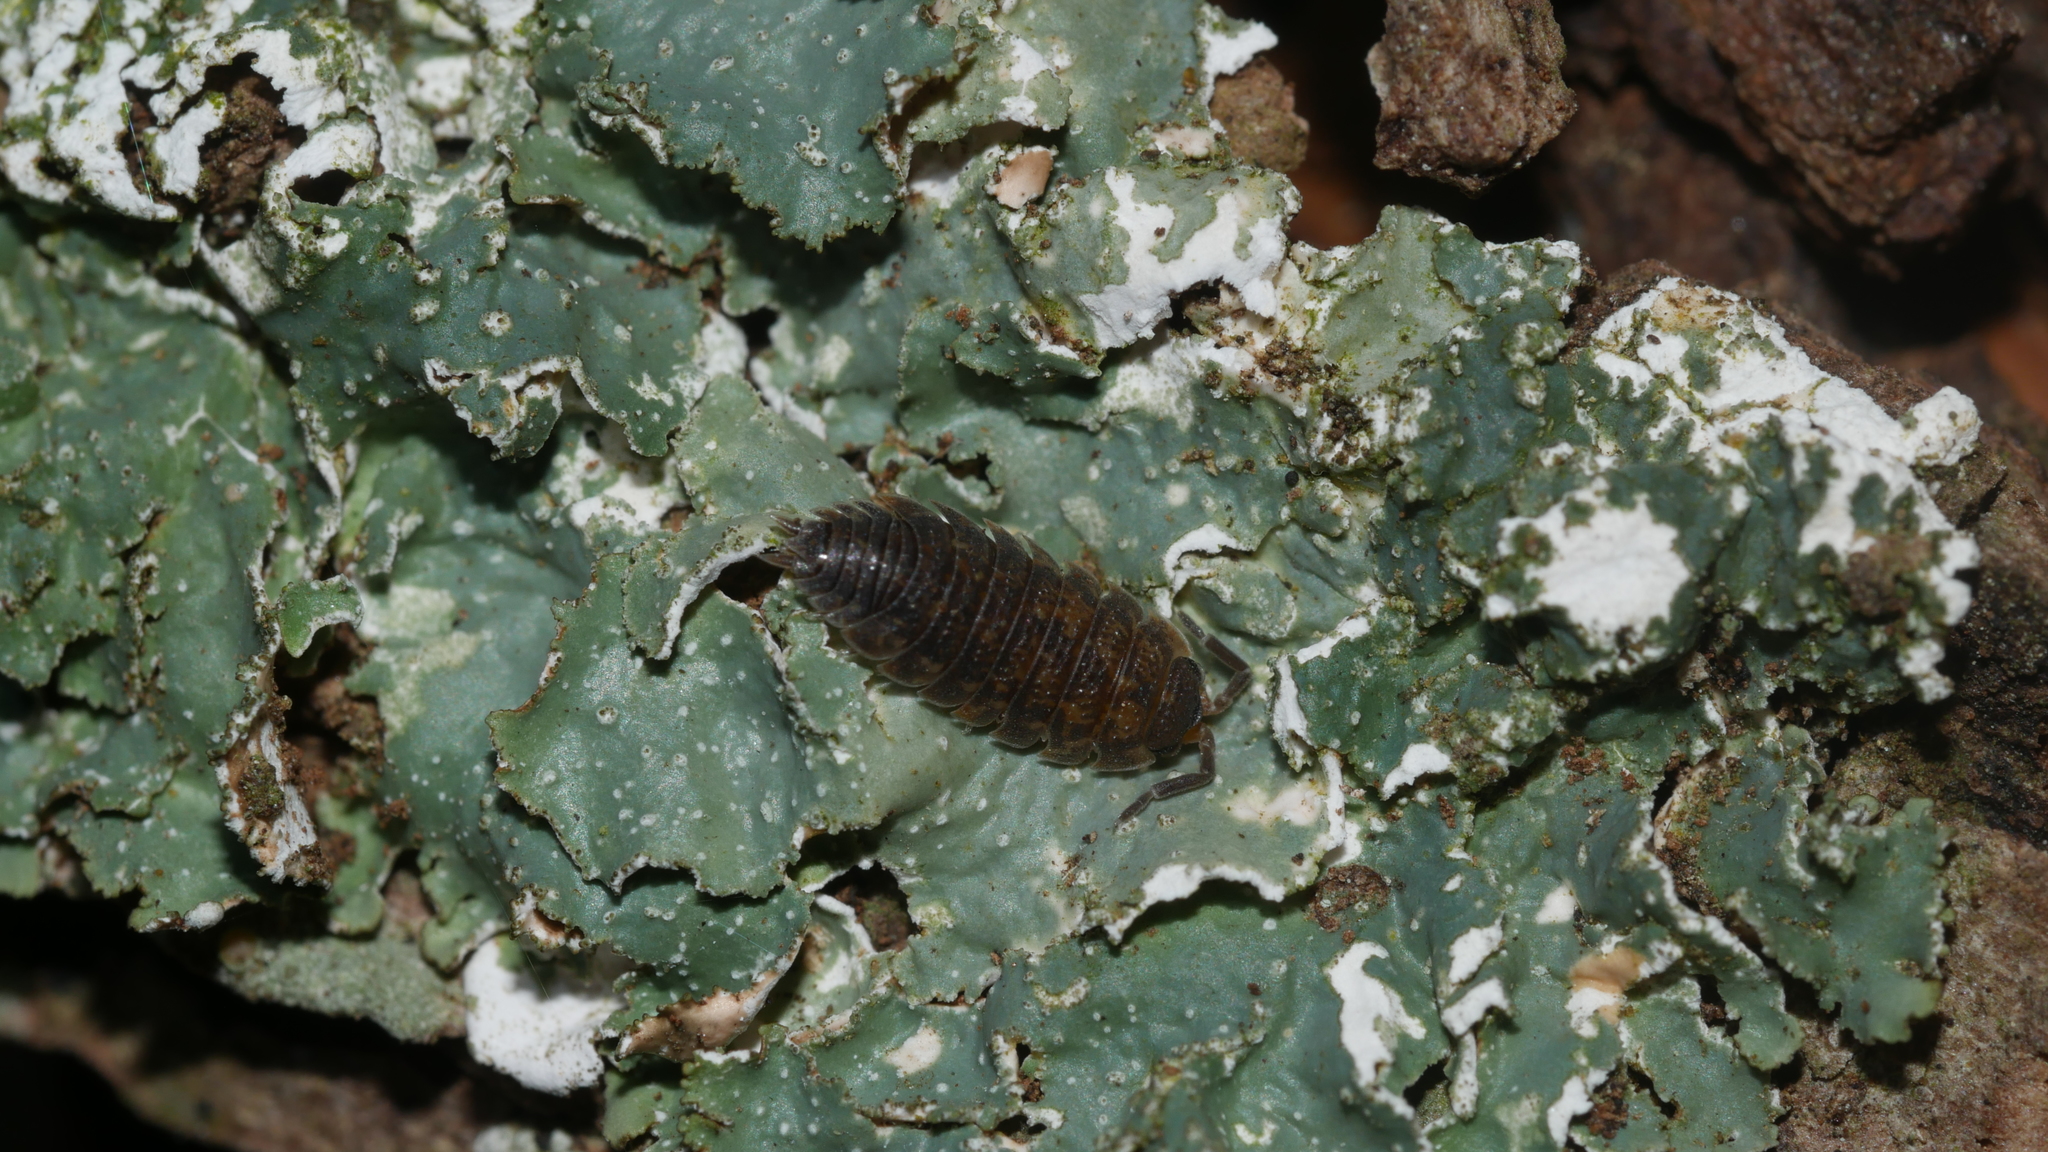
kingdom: Animalia
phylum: Arthropoda
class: Malacostraca
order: Isopoda
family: Porcellionidae
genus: Porcellio
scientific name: Porcellio scaber
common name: Common rough woodlouse
